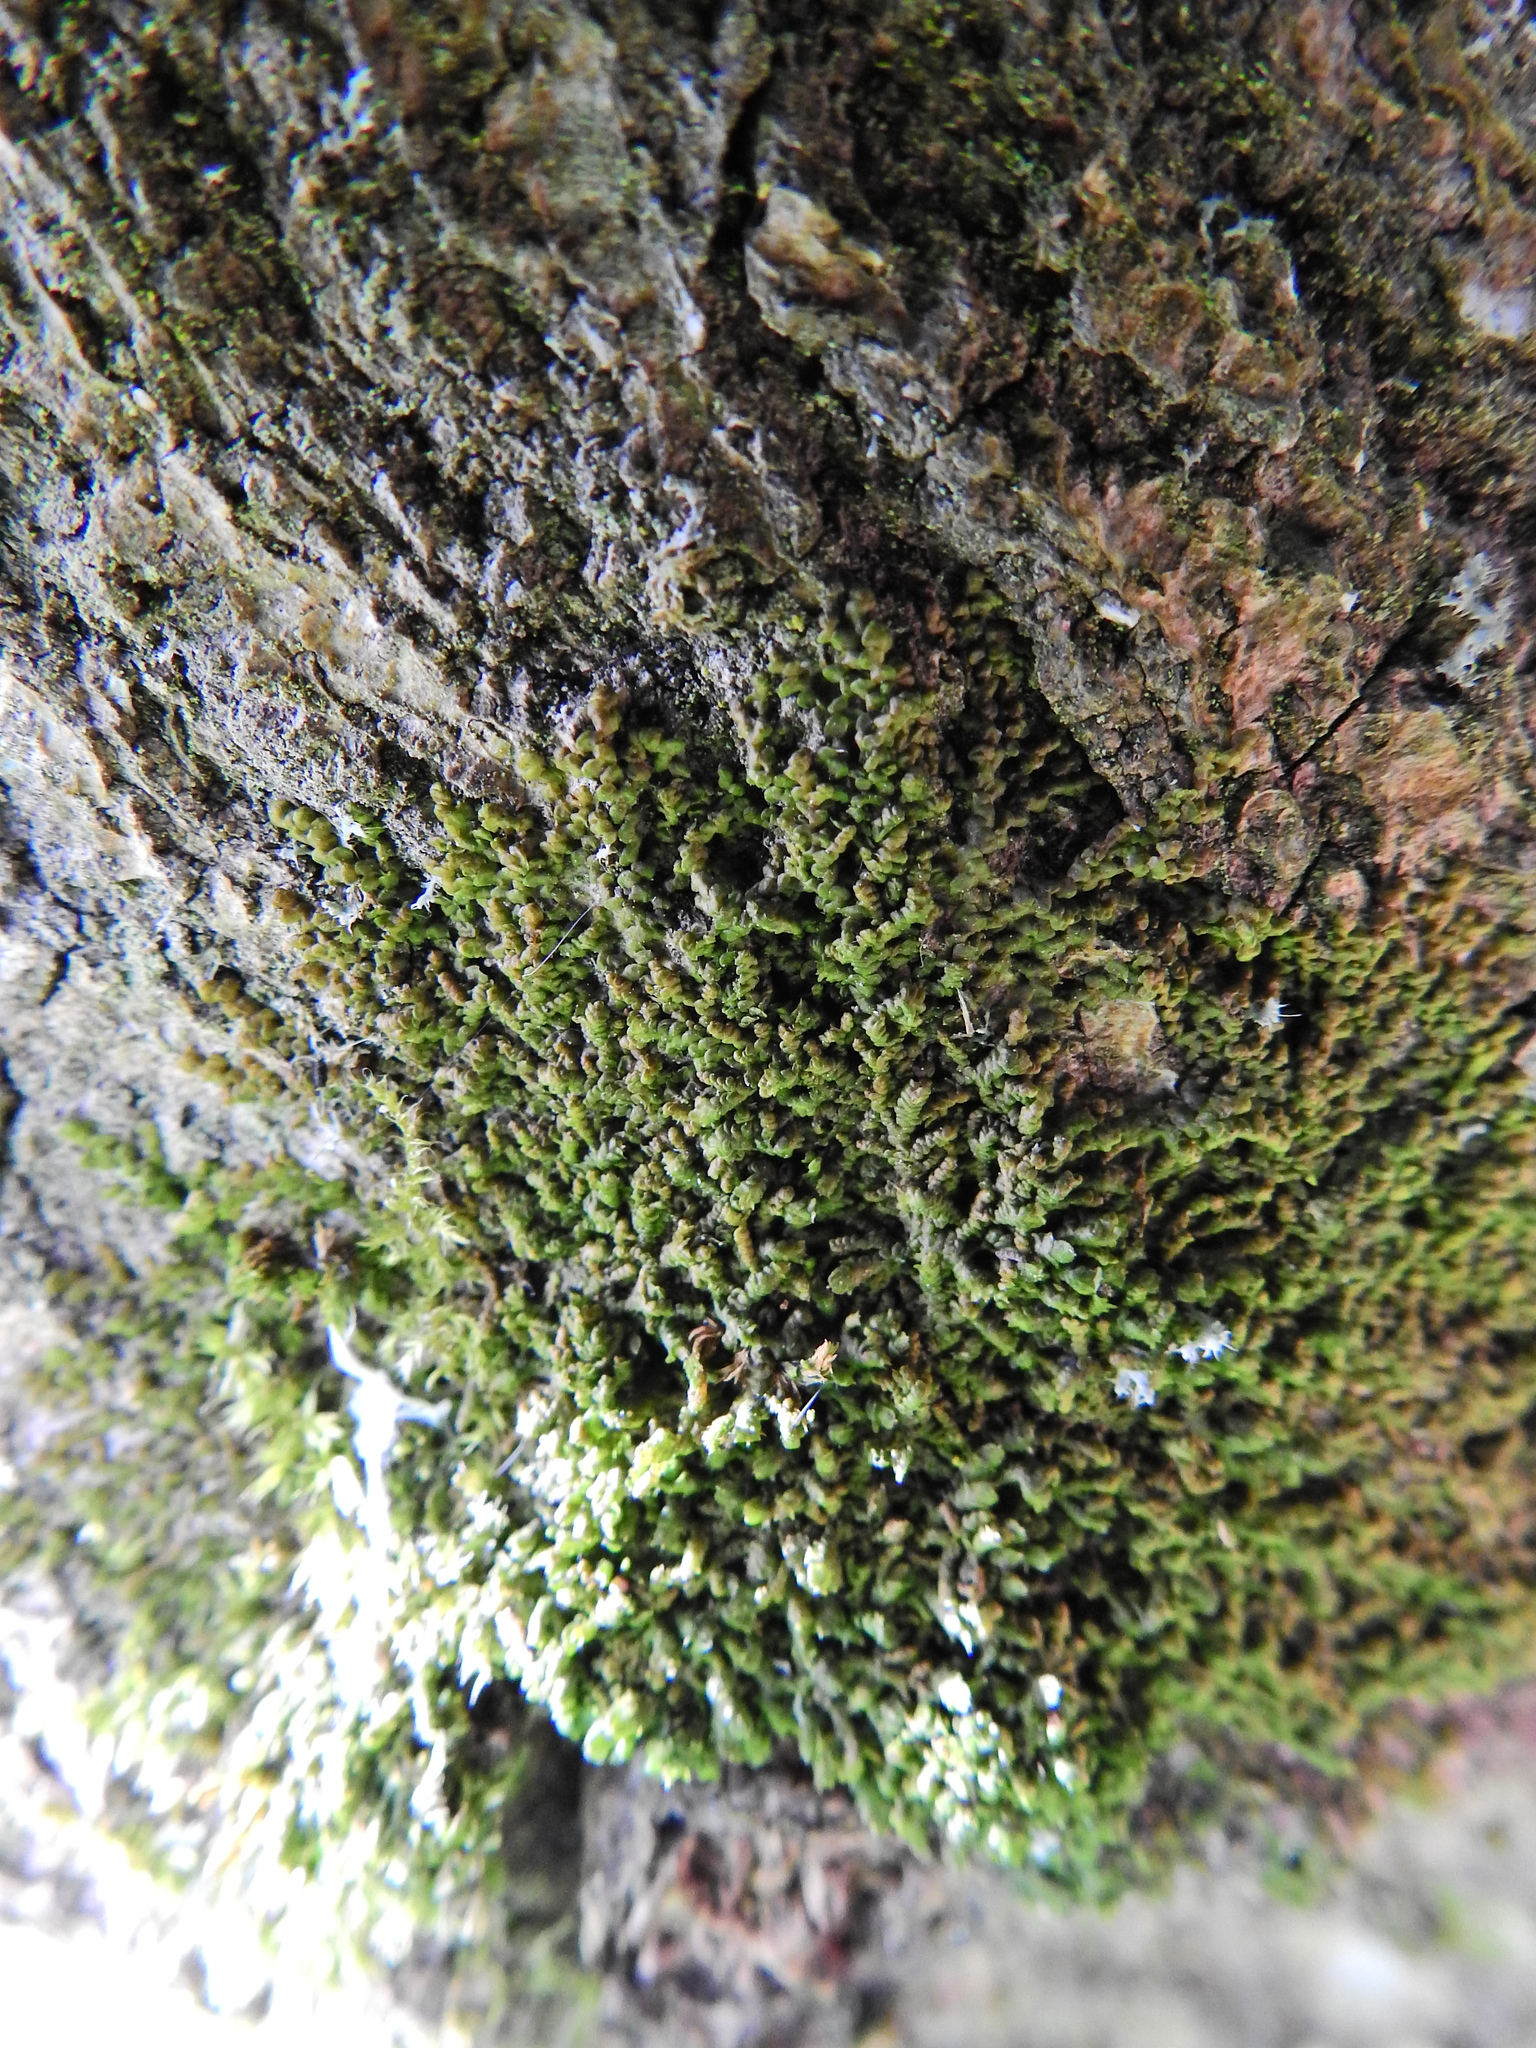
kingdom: Plantae
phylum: Marchantiophyta
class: Jungermanniopsida
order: Porellales
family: Frullaniaceae
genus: Frullania
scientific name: Frullania dilatata
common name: Dilated scalewort
